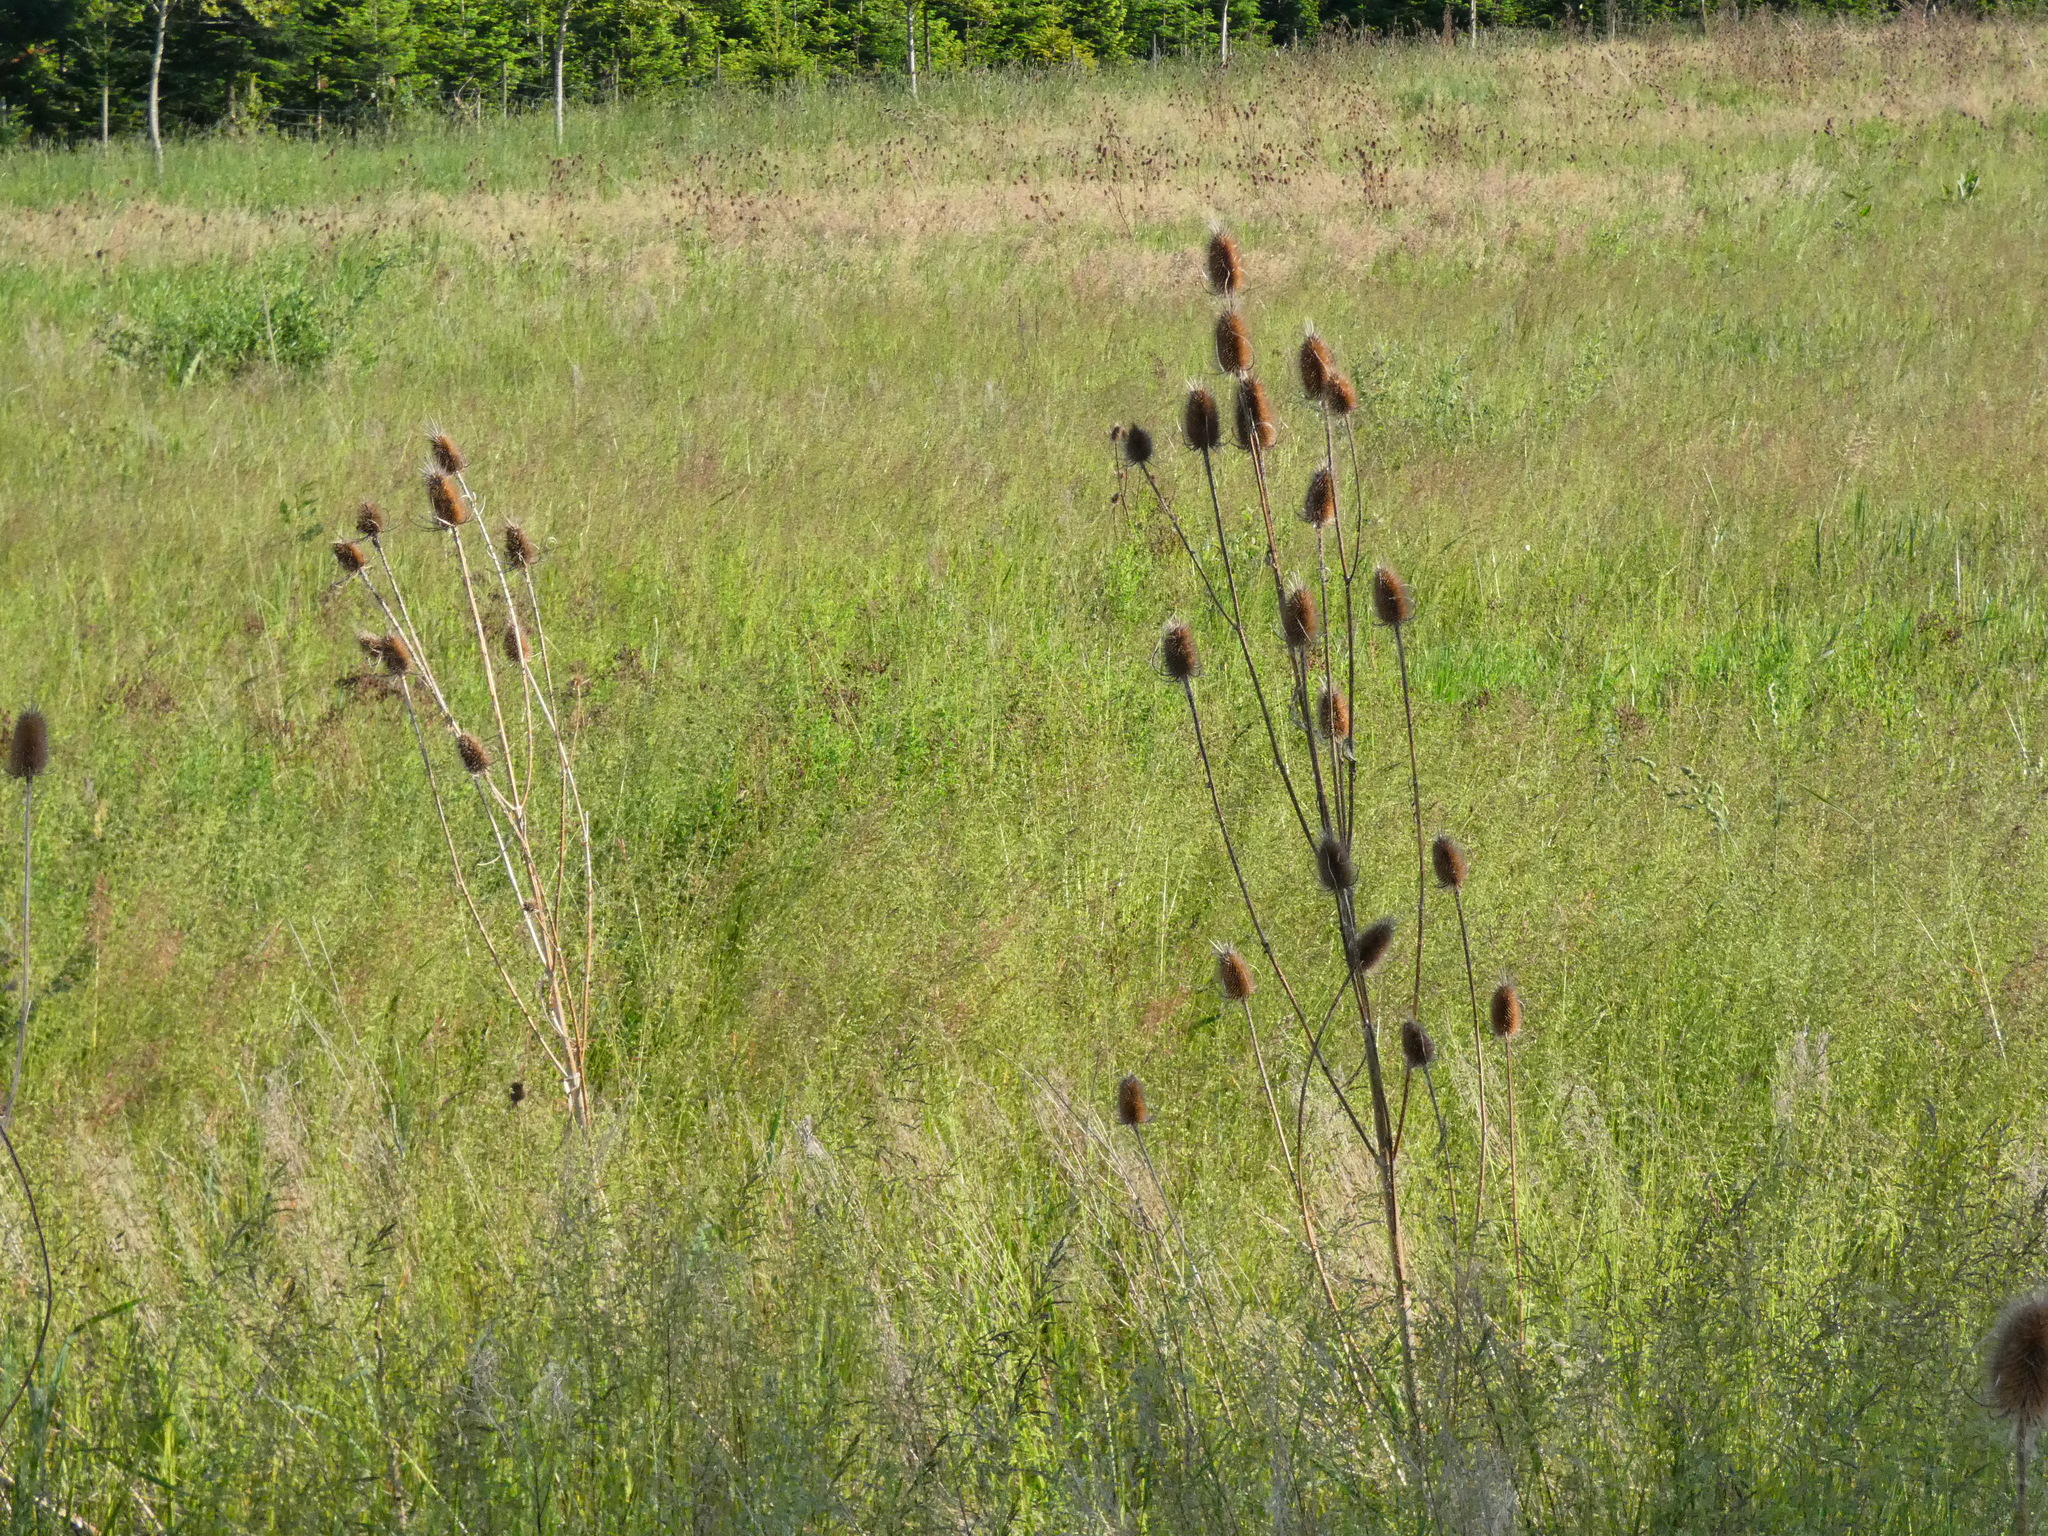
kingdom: Plantae
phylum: Tracheophyta
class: Magnoliopsida
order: Dipsacales
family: Caprifoliaceae
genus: Dipsacus
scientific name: Dipsacus fullonum
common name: Teasel
